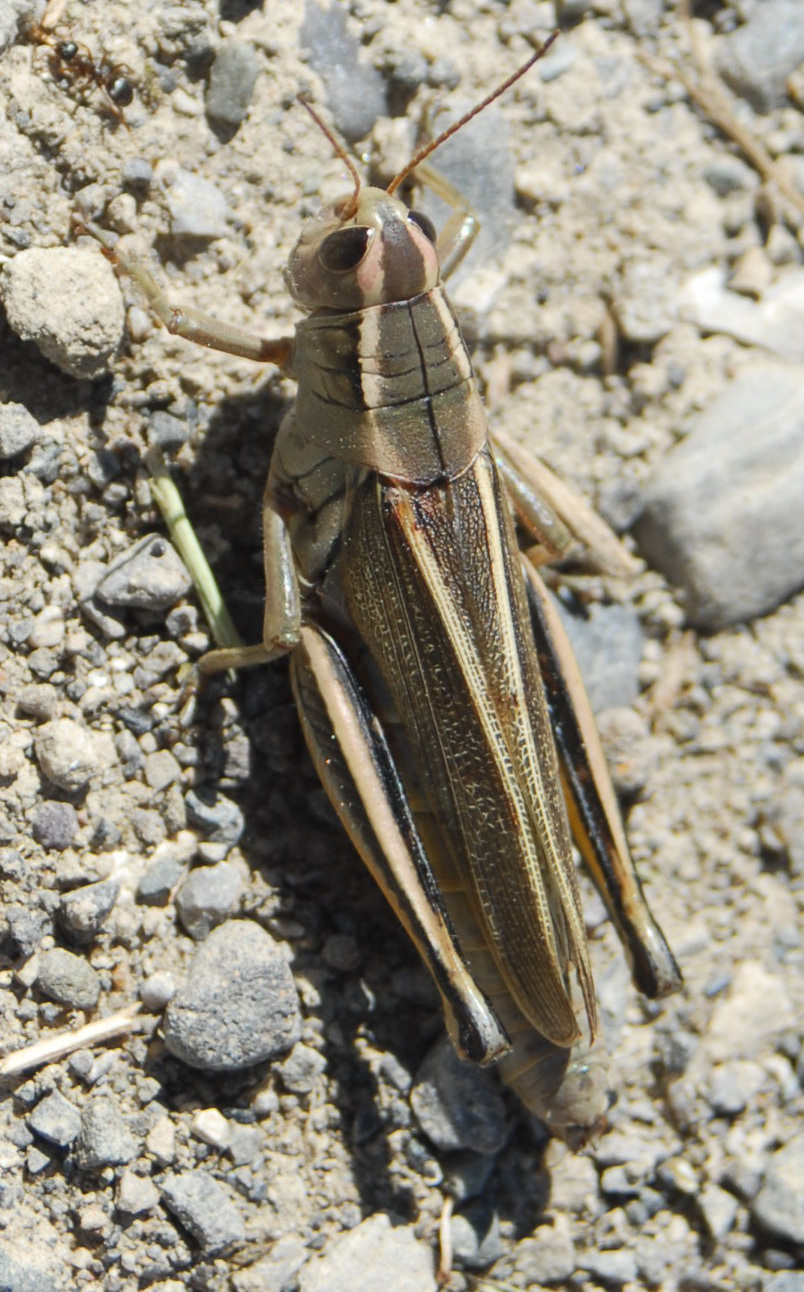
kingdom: Animalia
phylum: Arthropoda
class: Insecta
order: Orthoptera
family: Acrididae
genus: Melanoplus
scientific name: Melanoplus bivittatus
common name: Two-striped grasshopper
